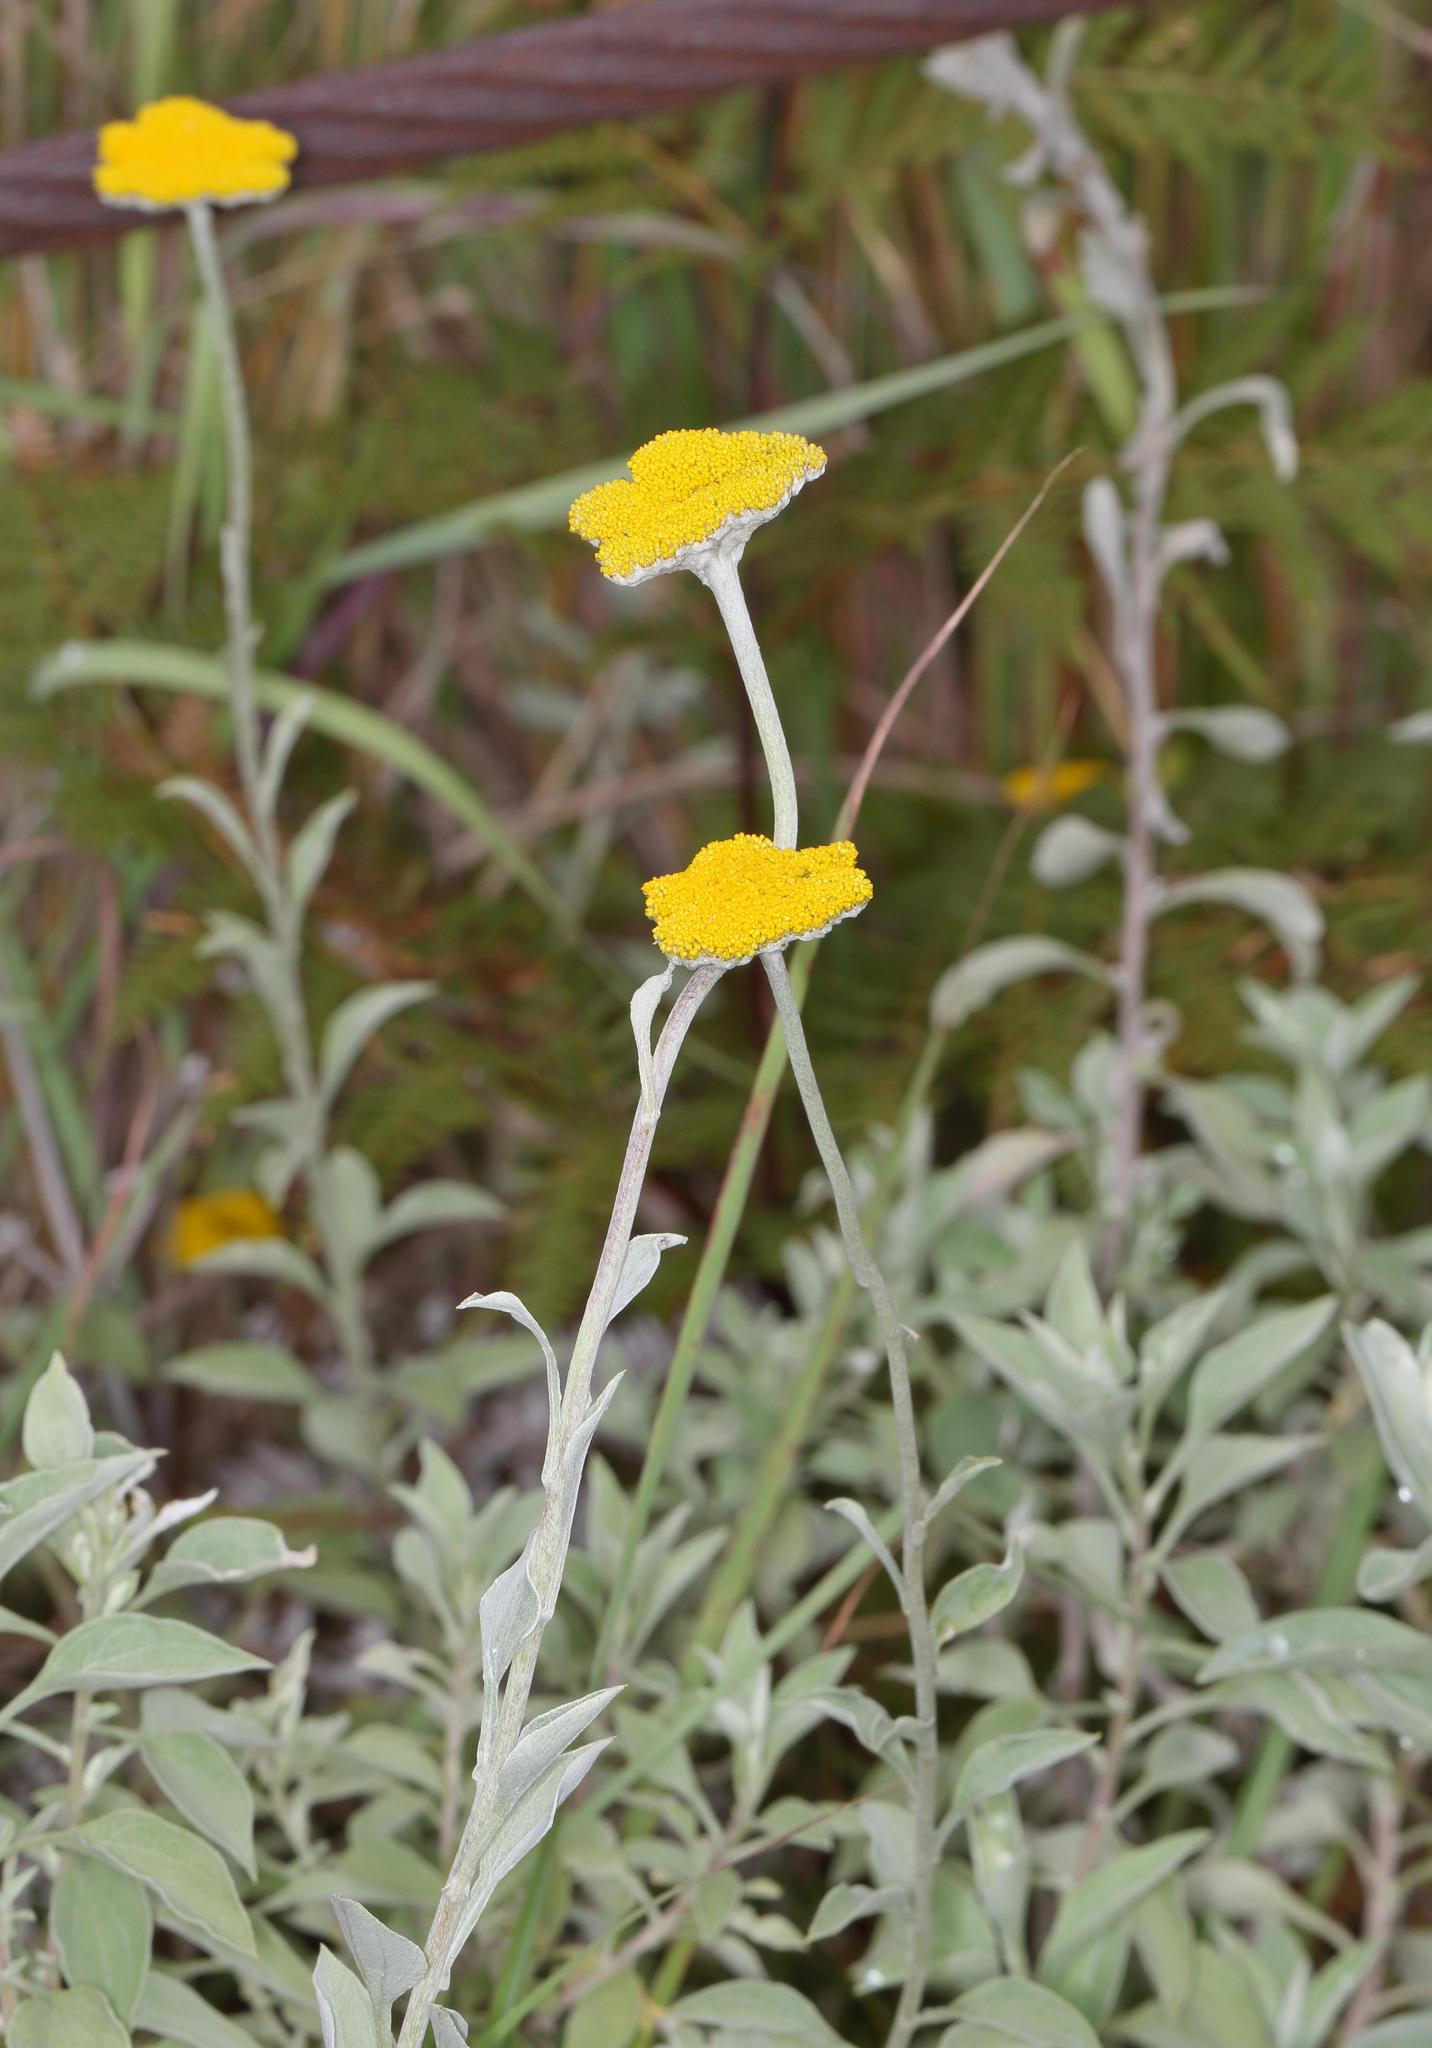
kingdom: Plantae
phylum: Tracheophyta
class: Magnoliopsida
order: Asterales
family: Asteraceae
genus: Helichrysum
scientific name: Helichrysum umbraculigerum
